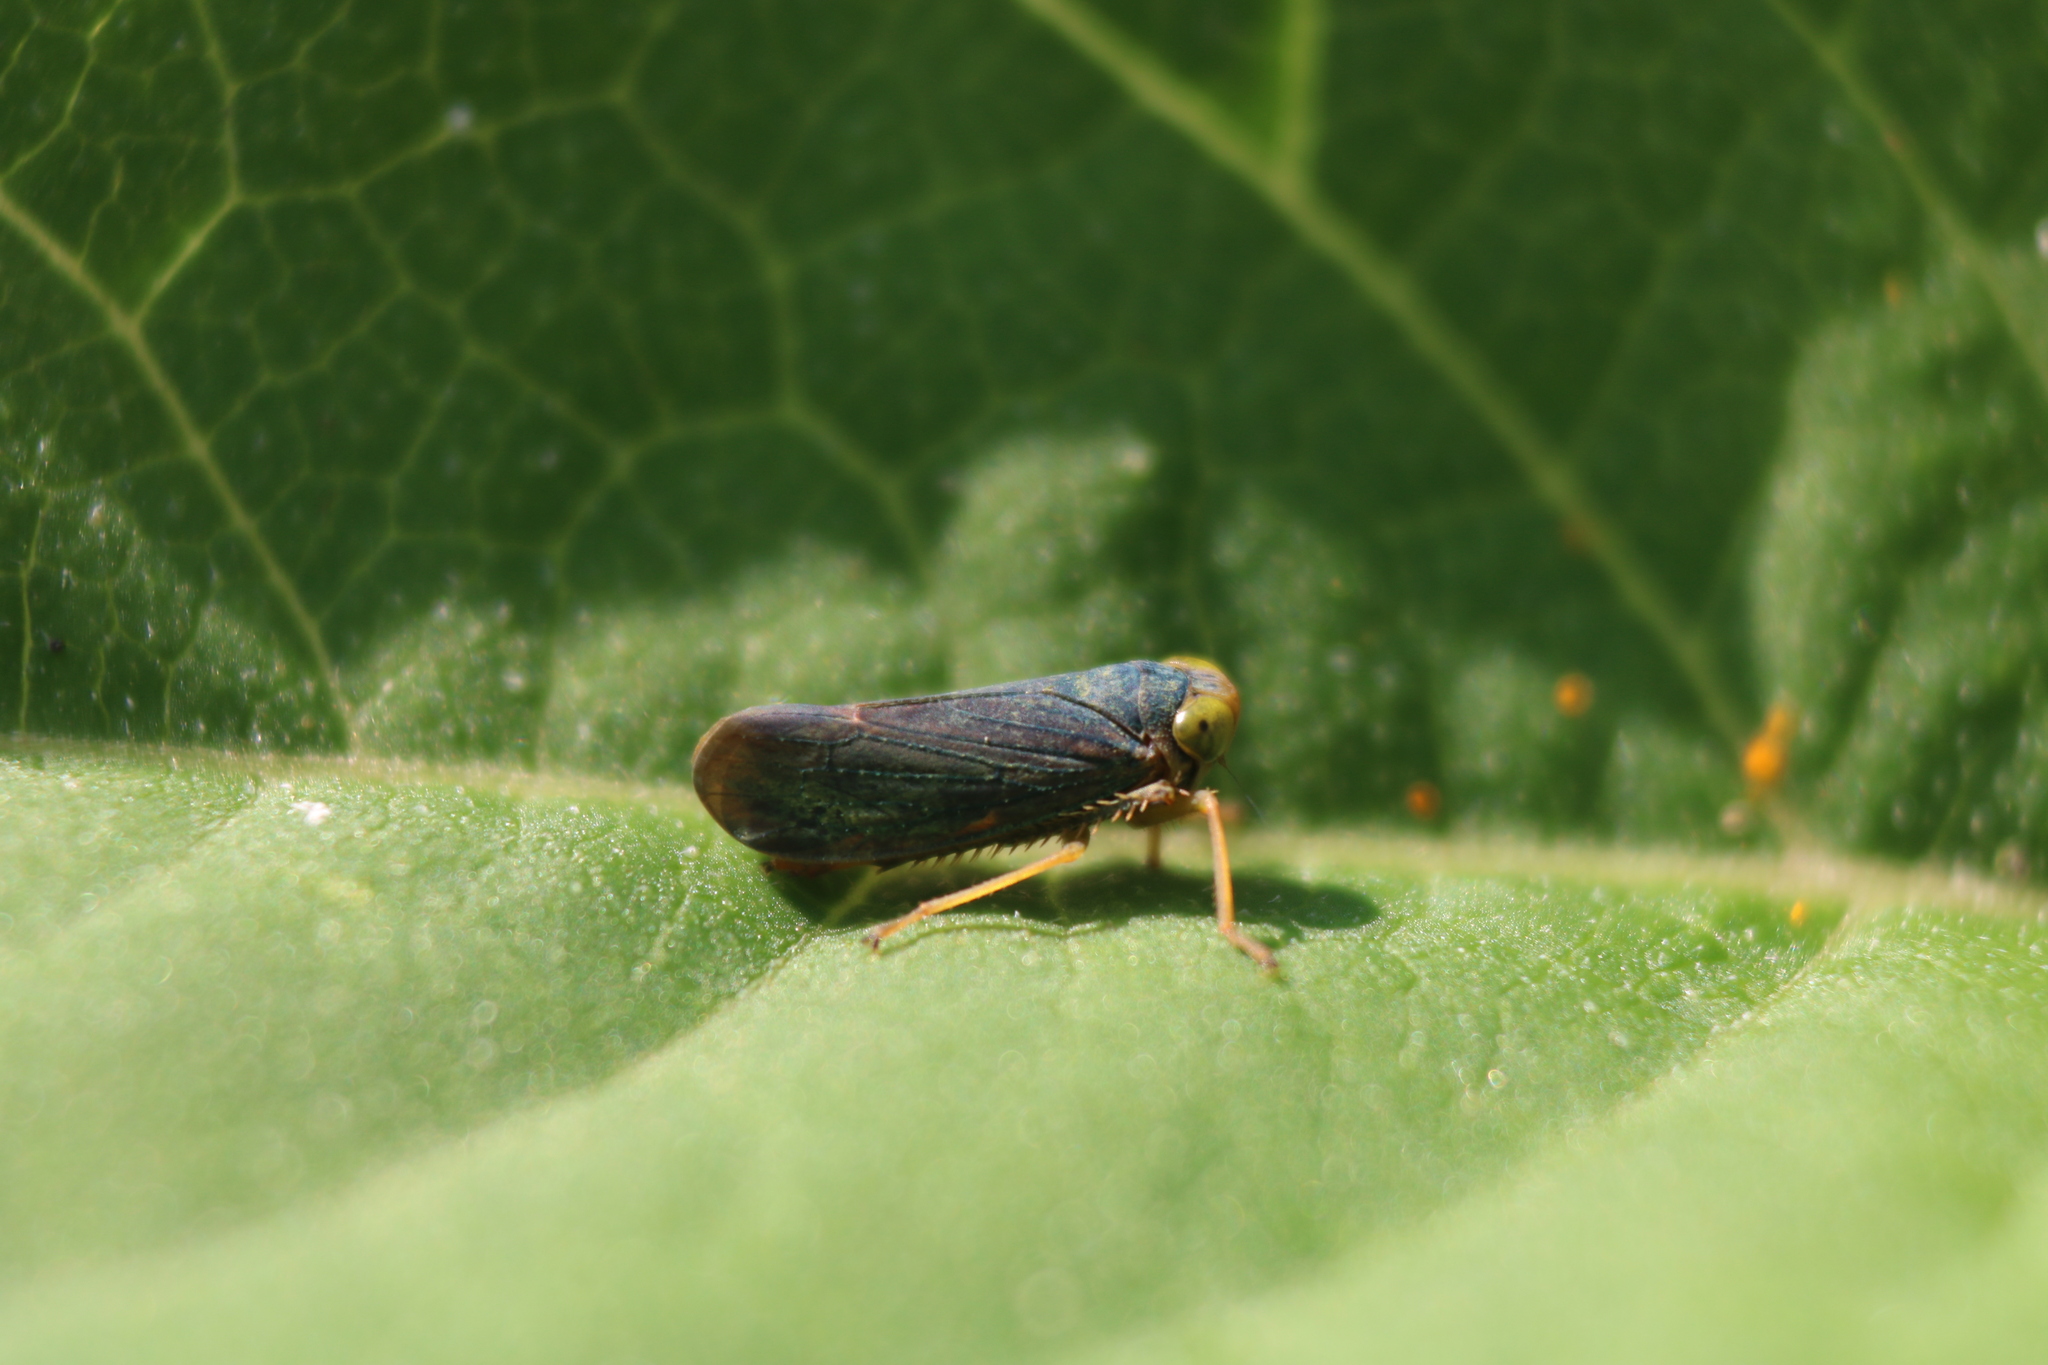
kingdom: Animalia
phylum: Arthropoda
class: Insecta
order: Hemiptera
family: Cicadellidae
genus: Jikradia
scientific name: Jikradia olitoria
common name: Coppery leafhopper
